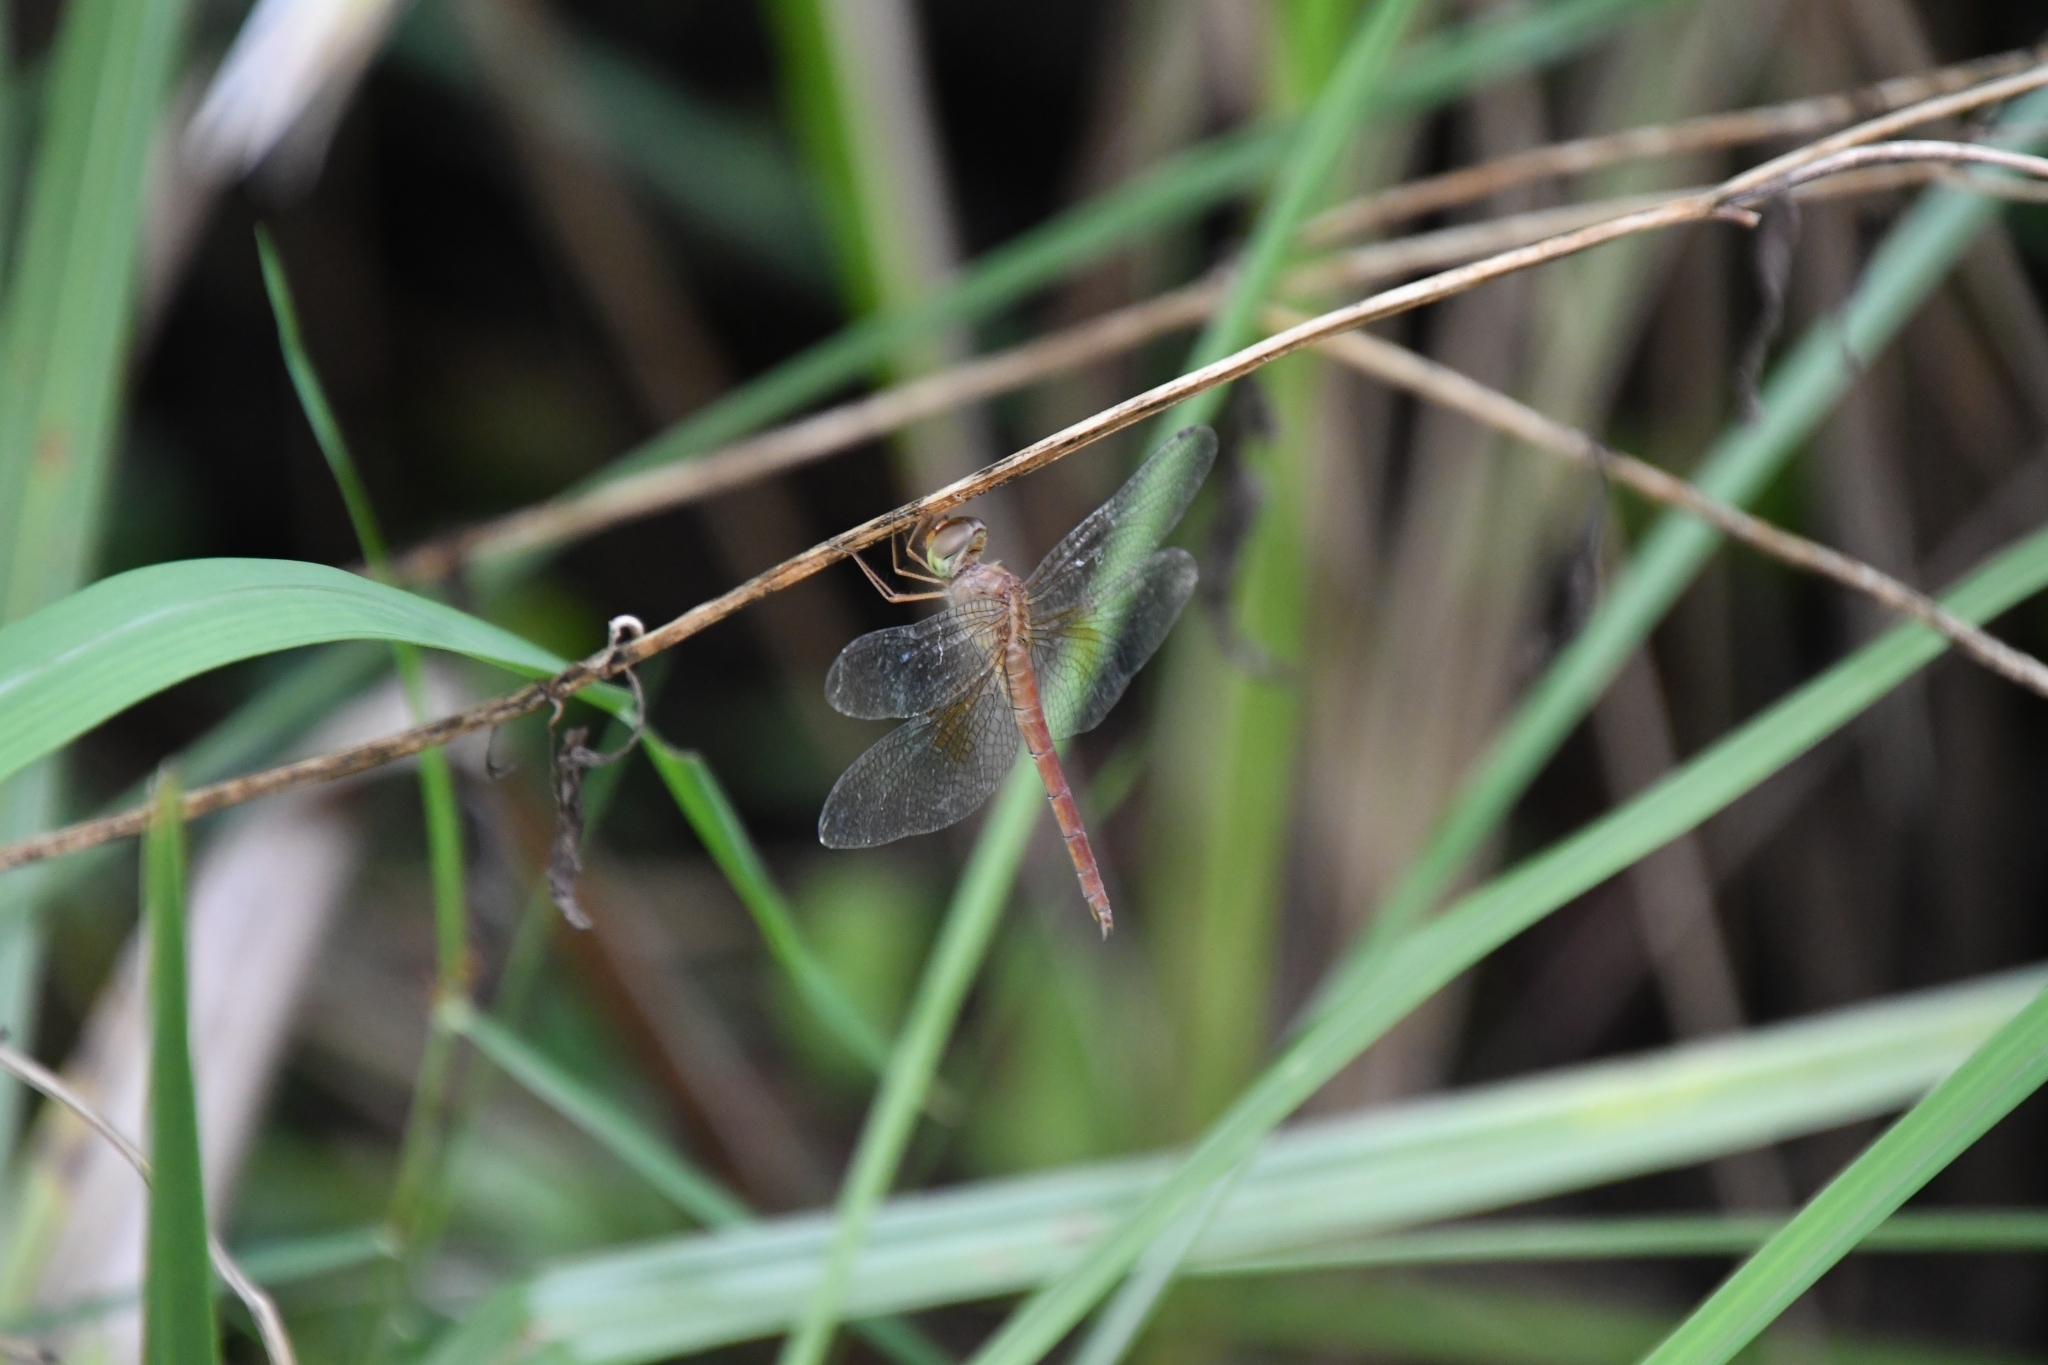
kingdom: Animalia
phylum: Arthropoda
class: Insecta
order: Odonata
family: Libellulidae
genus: Tholymis
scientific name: Tholymis tillarga
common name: Coral-tailed cloud wing
